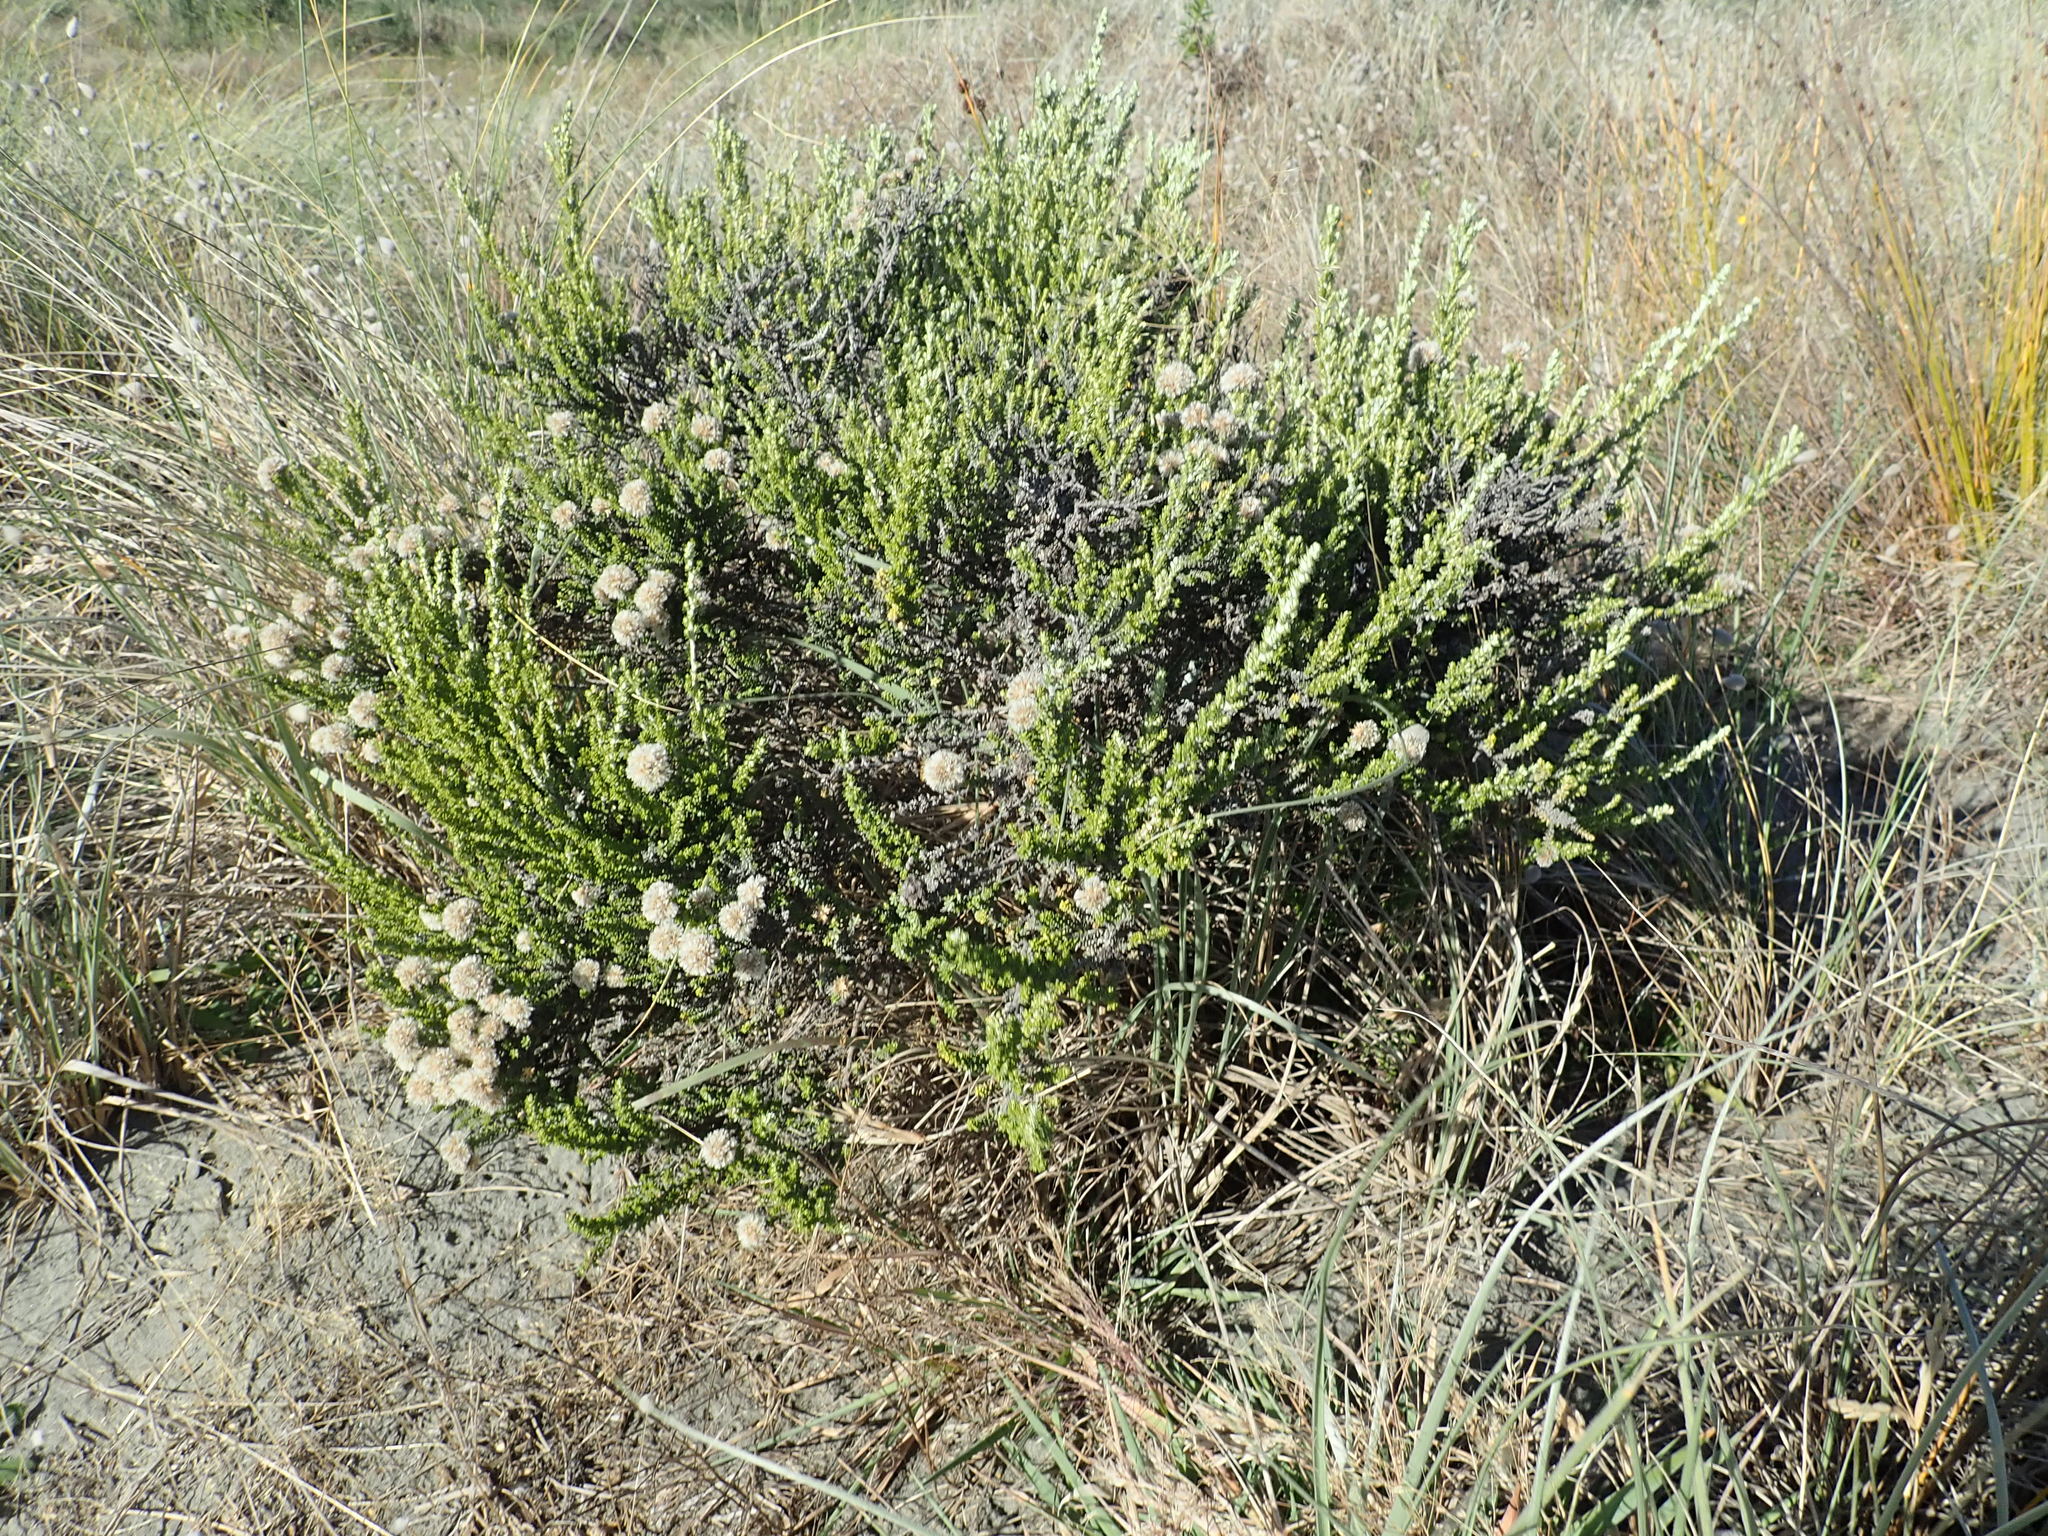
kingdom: Plantae
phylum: Tracheophyta
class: Magnoliopsida
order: Asterales
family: Asteraceae
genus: Ozothamnus
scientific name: Ozothamnus leptophyllus
